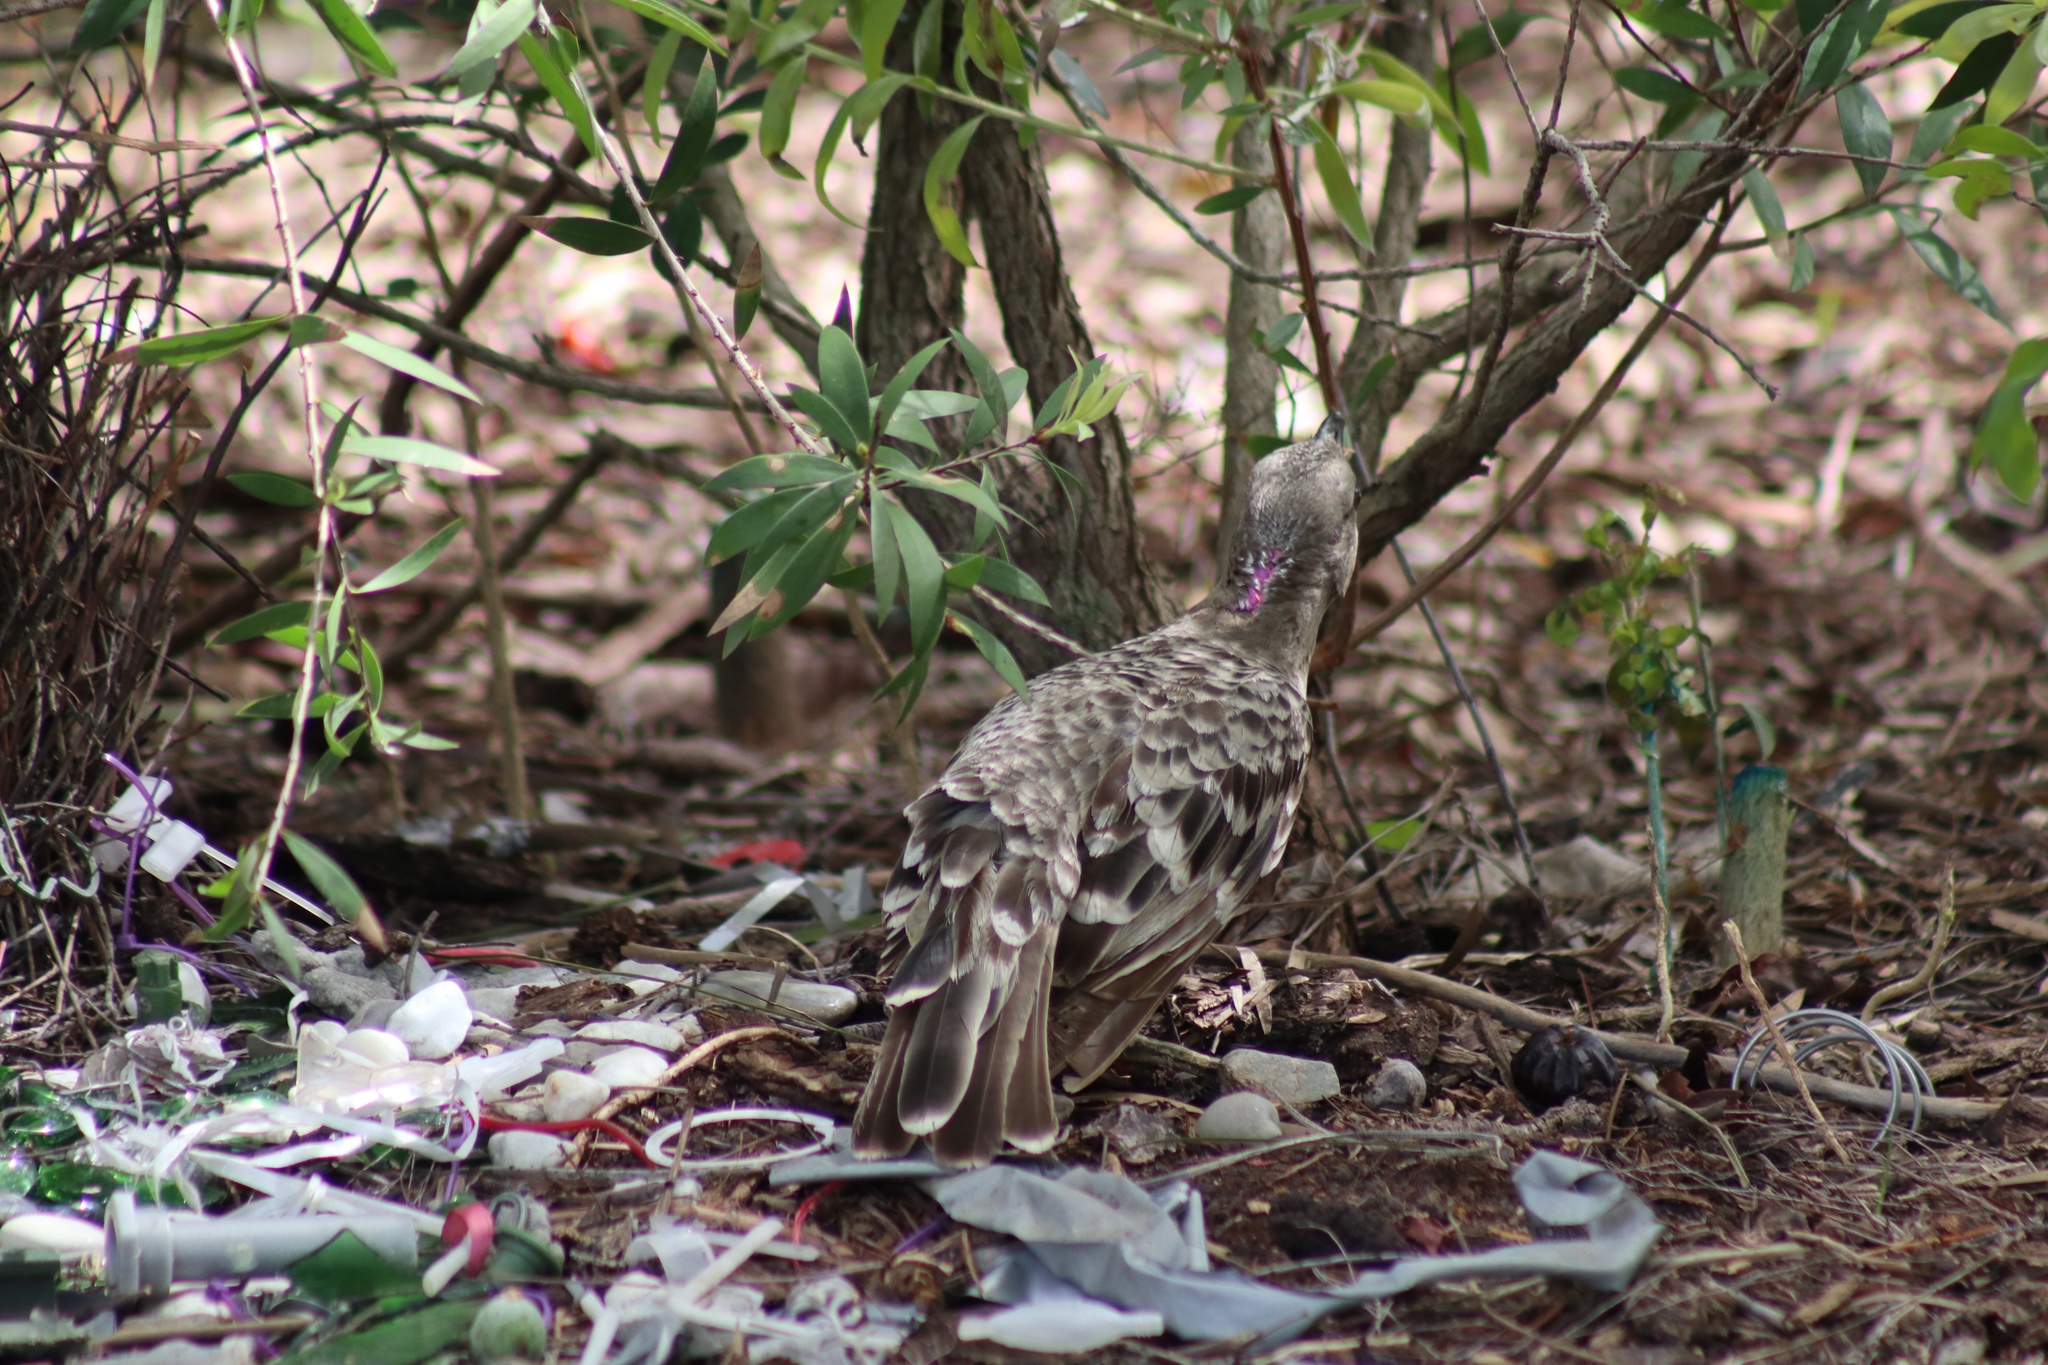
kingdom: Animalia
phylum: Chordata
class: Aves
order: Passeriformes
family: Ptilonorhynchidae
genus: Chlamydera
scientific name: Chlamydera nuchalis
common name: Great bowerbird
